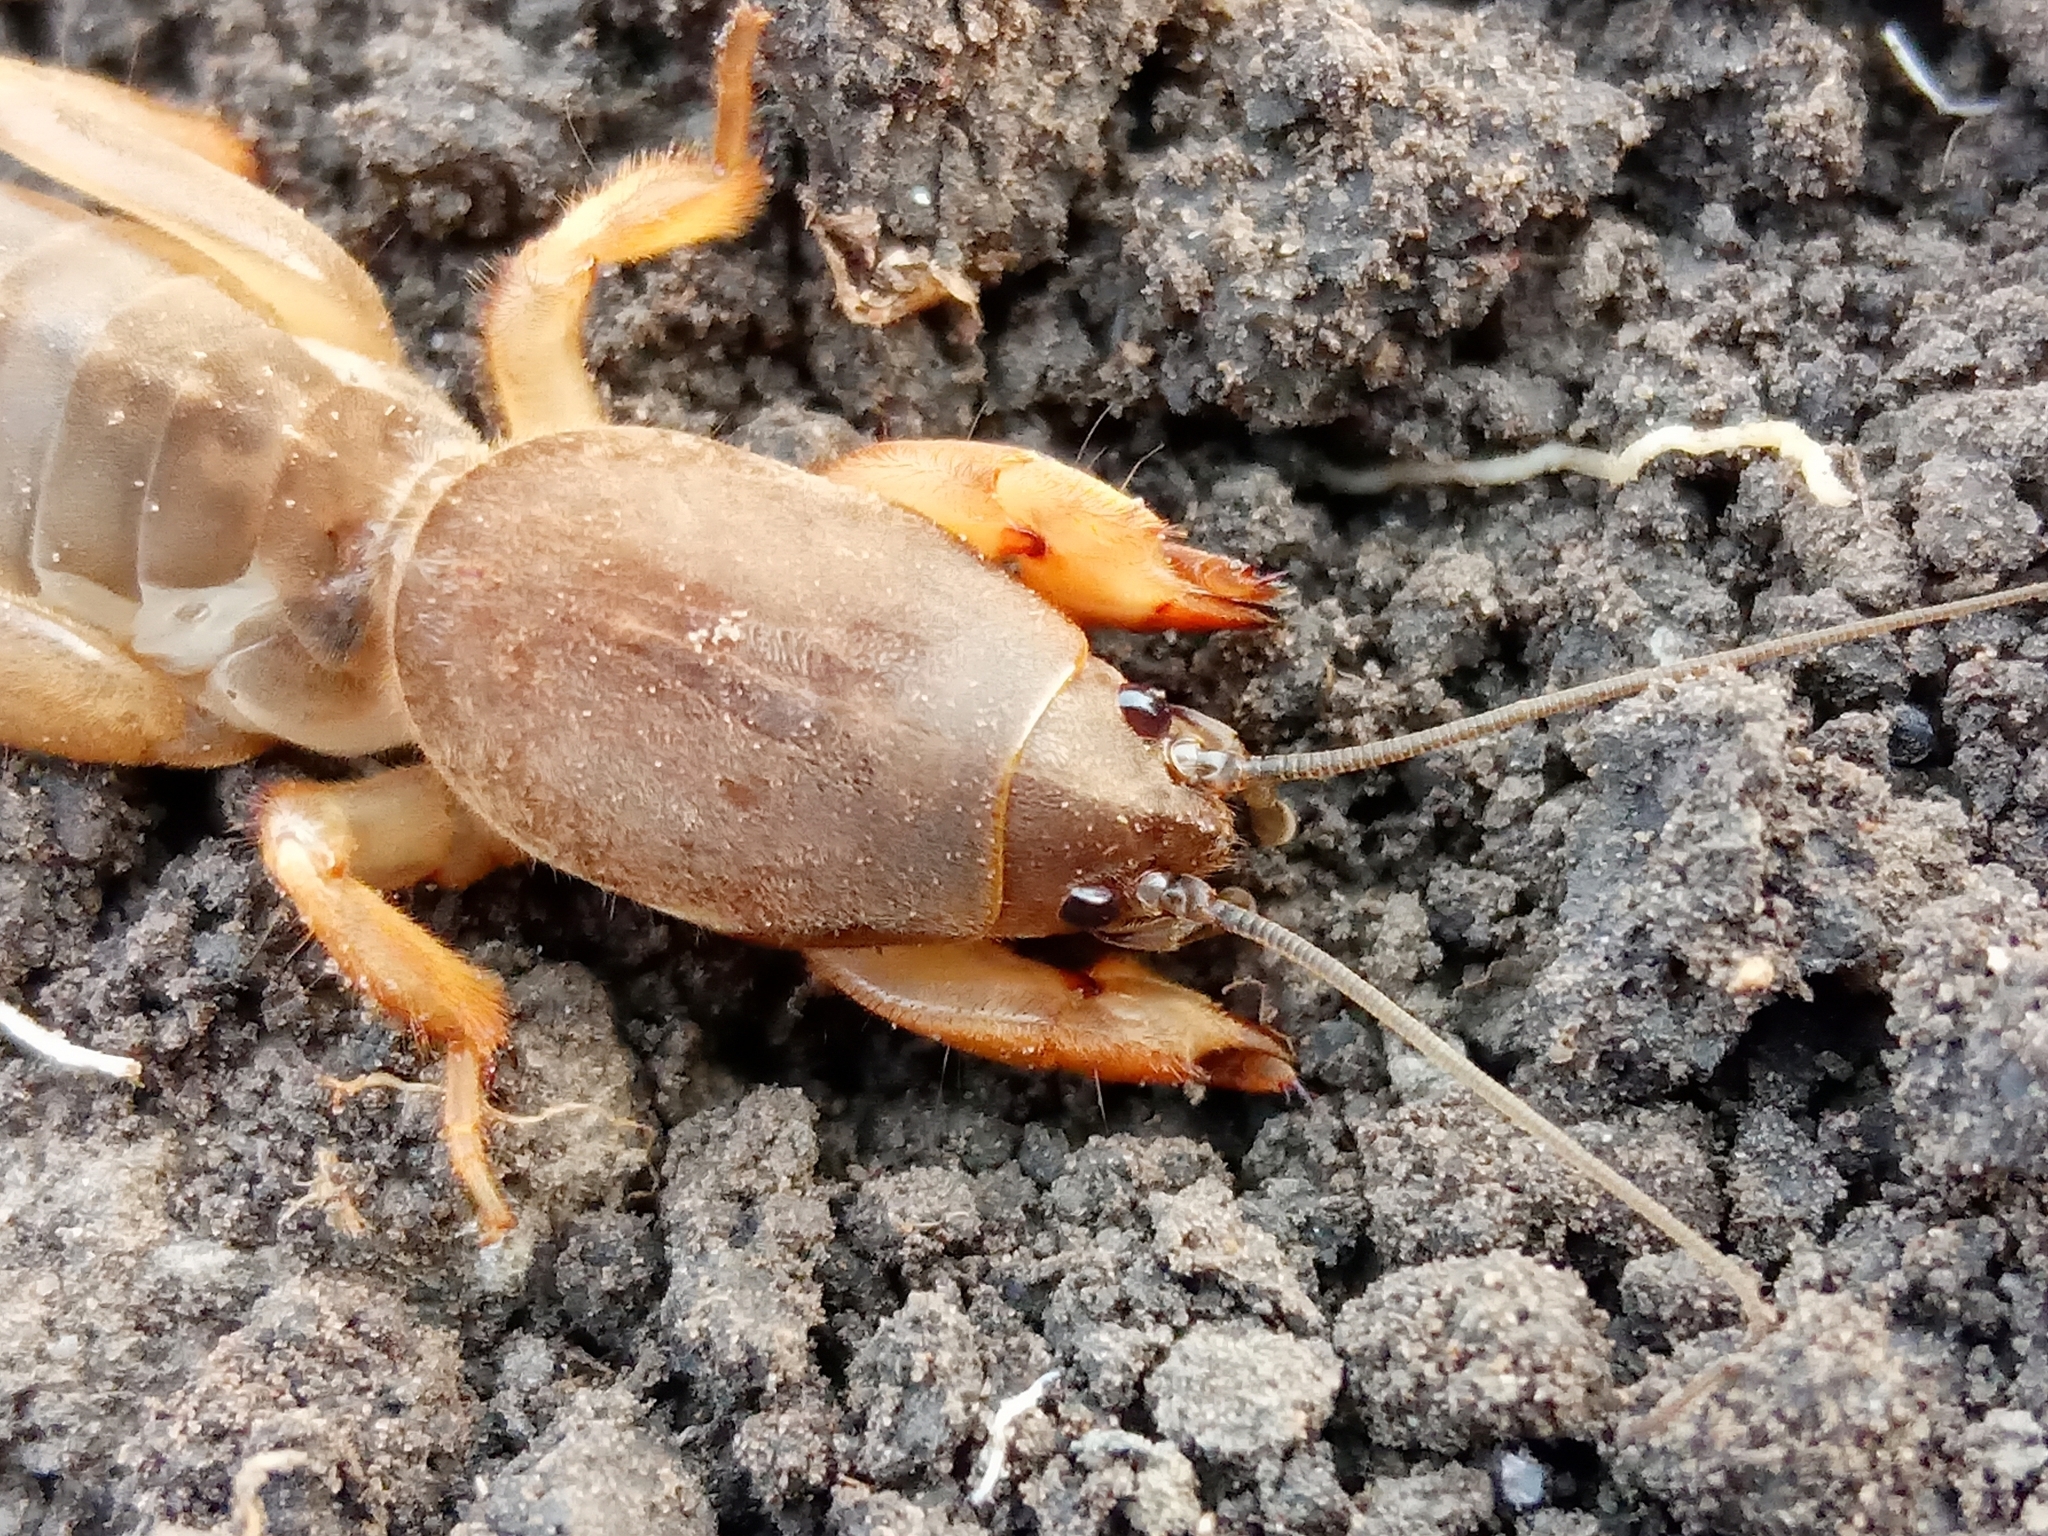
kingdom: Animalia
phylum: Arthropoda
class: Insecta
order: Orthoptera
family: Gryllotalpidae
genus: Gryllotalpa
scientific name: Gryllotalpa
